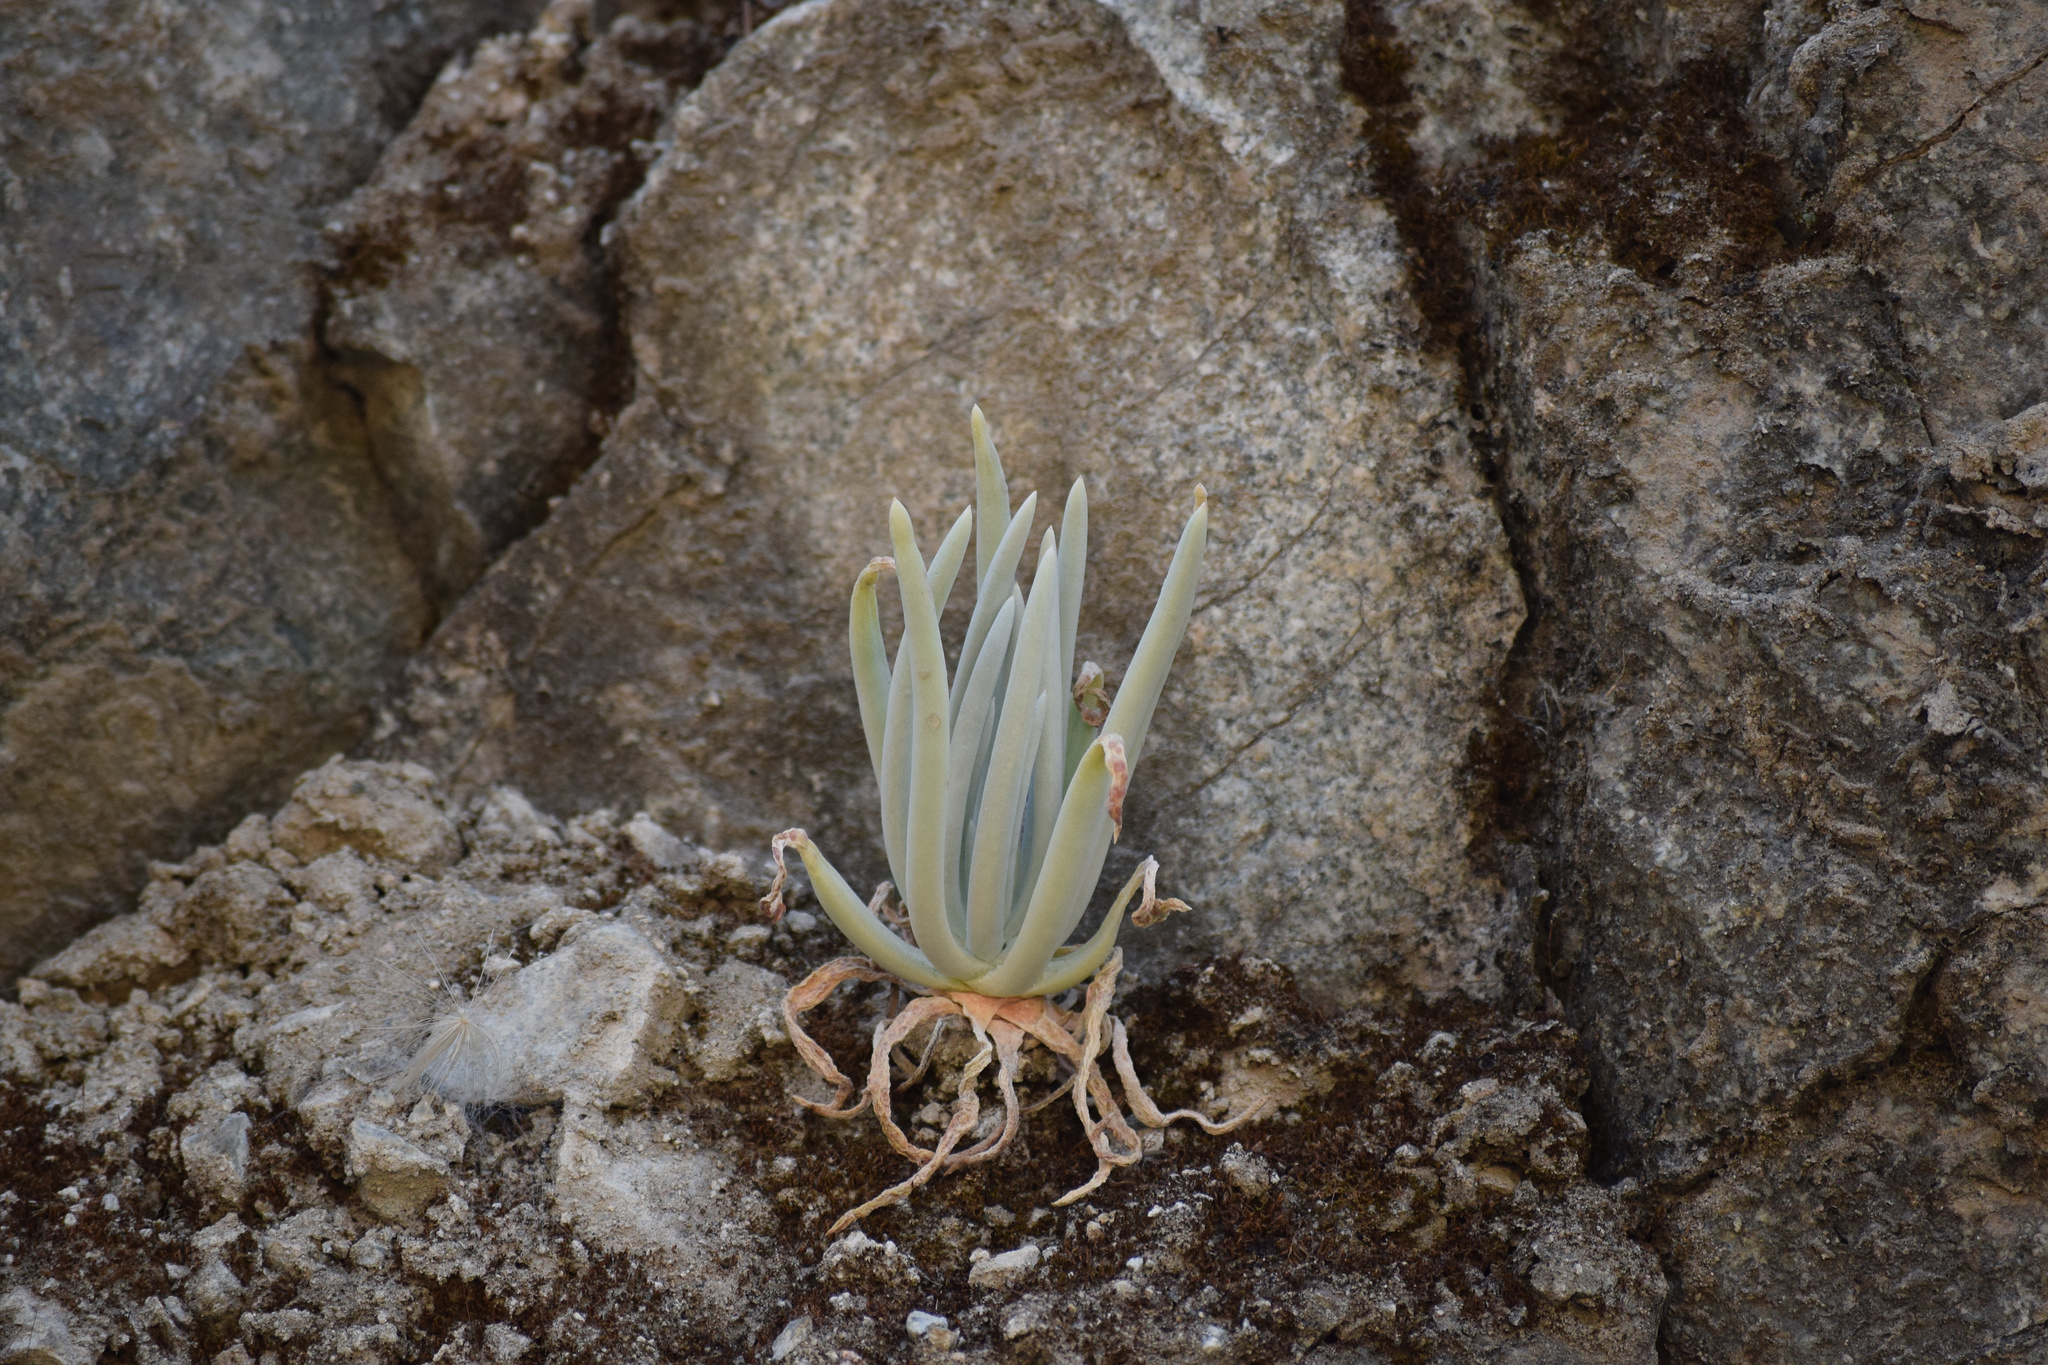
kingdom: Plantae
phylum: Tracheophyta
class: Magnoliopsida
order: Saxifragales
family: Crassulaceae
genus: Dudleya
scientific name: Dudleya densiflora
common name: San gabriel mountains dudleya
